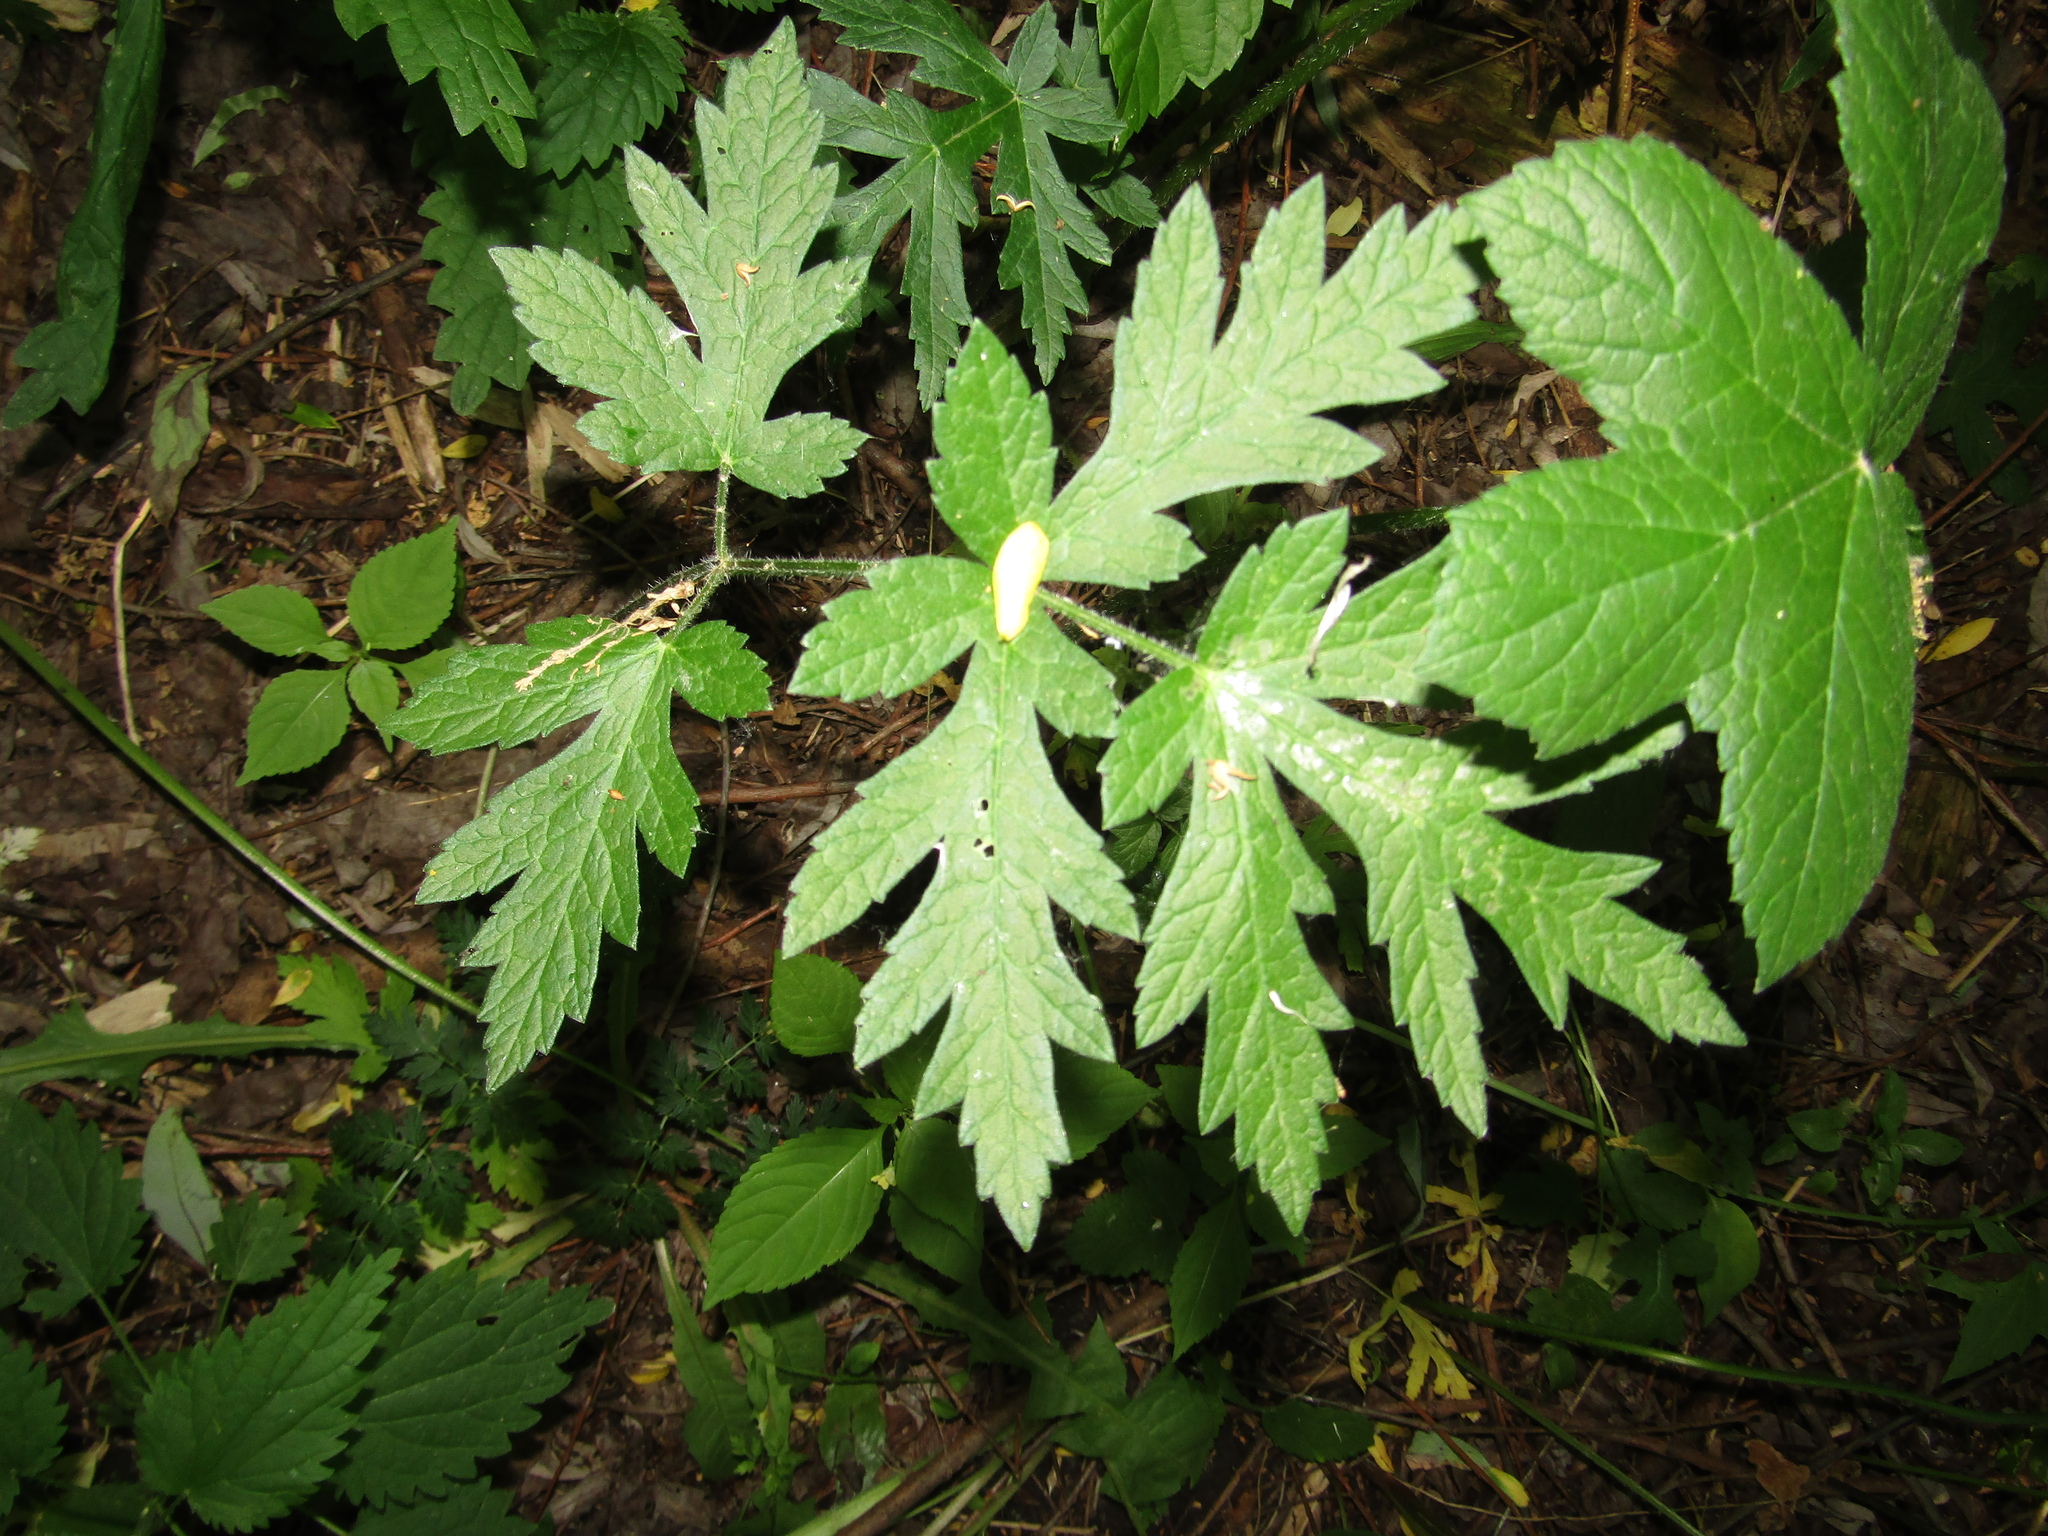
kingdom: Plantae
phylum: Tracheophyta
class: Magnoliopsida
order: Apiales
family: Apiaceae
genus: Heracleum
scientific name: Heracleum sphondylium
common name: Hogweed
